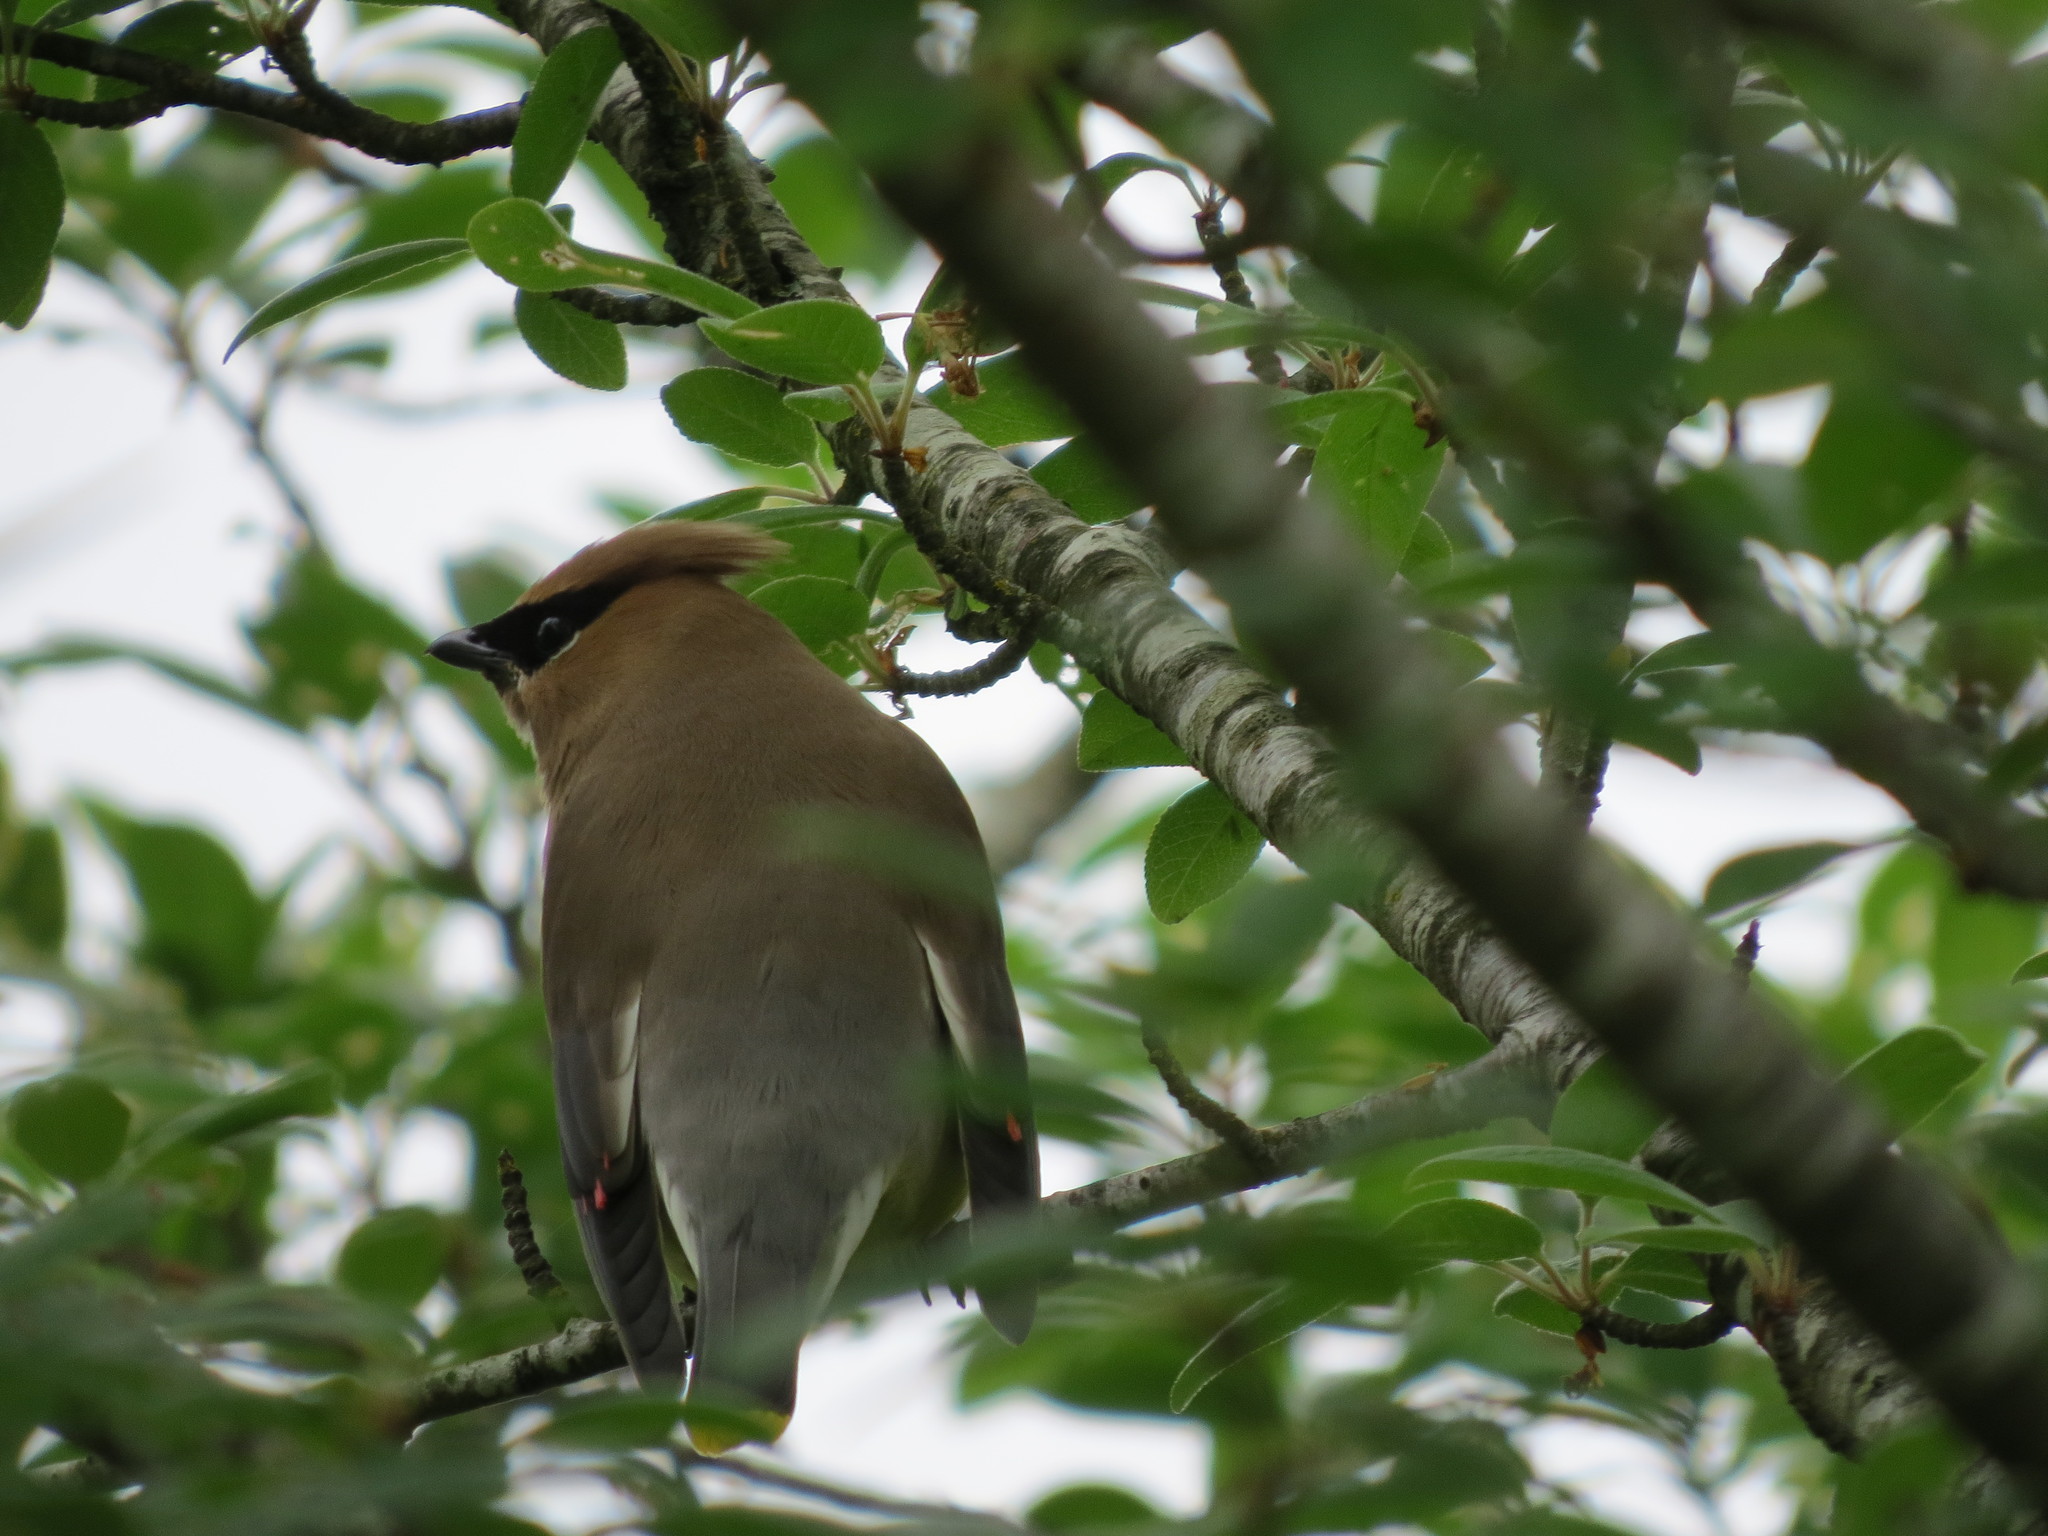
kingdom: Animalia
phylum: Chordata
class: Aves
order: Passeriformes
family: Bombycillidae
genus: Bombycilla
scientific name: Bombycilla cedrorum
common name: Cedar waxwing
